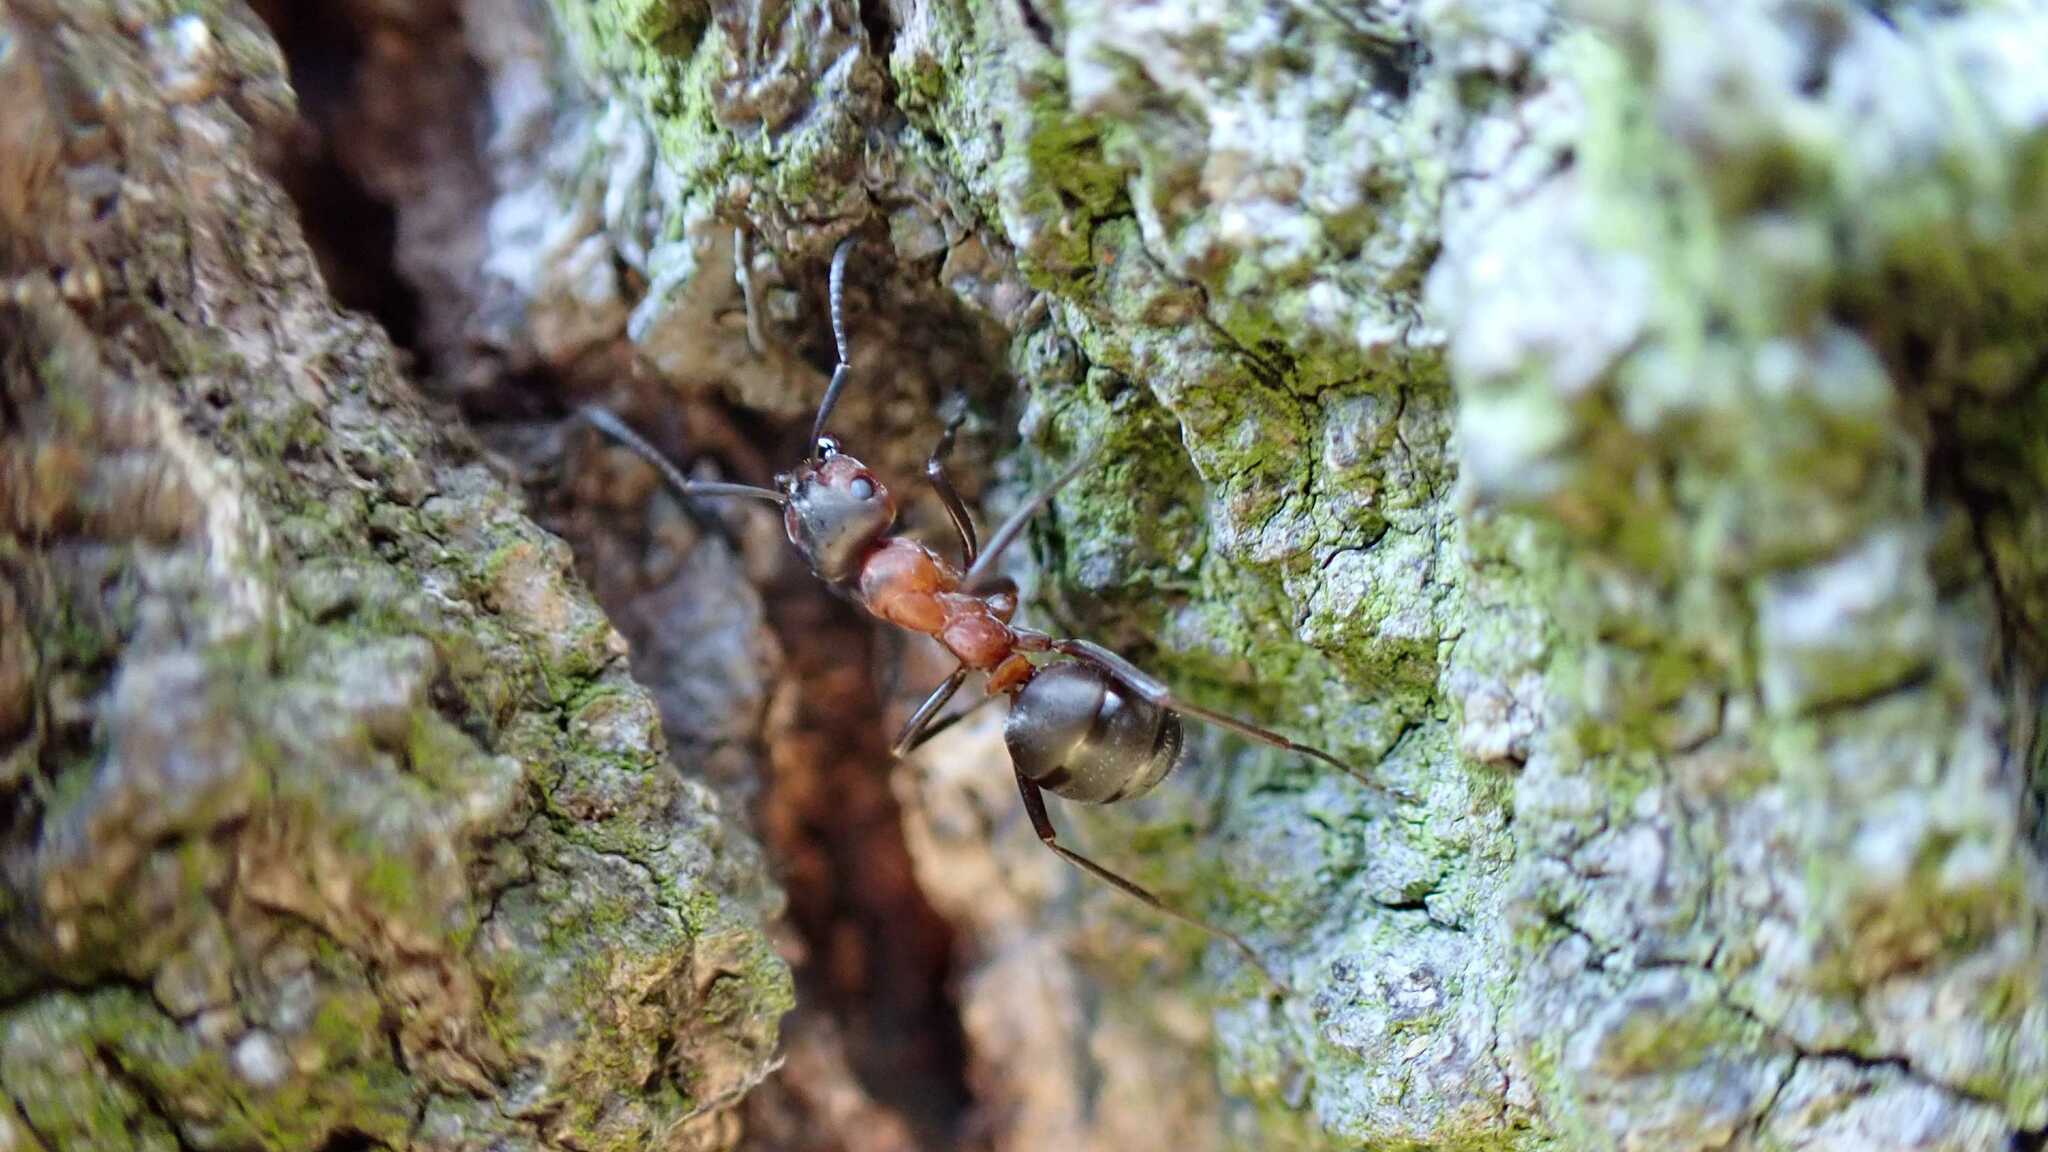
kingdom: Animalia
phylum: Arthropoda
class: Insecta
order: Hymenoptera
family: Formicidae
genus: Formica
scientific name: Formica
